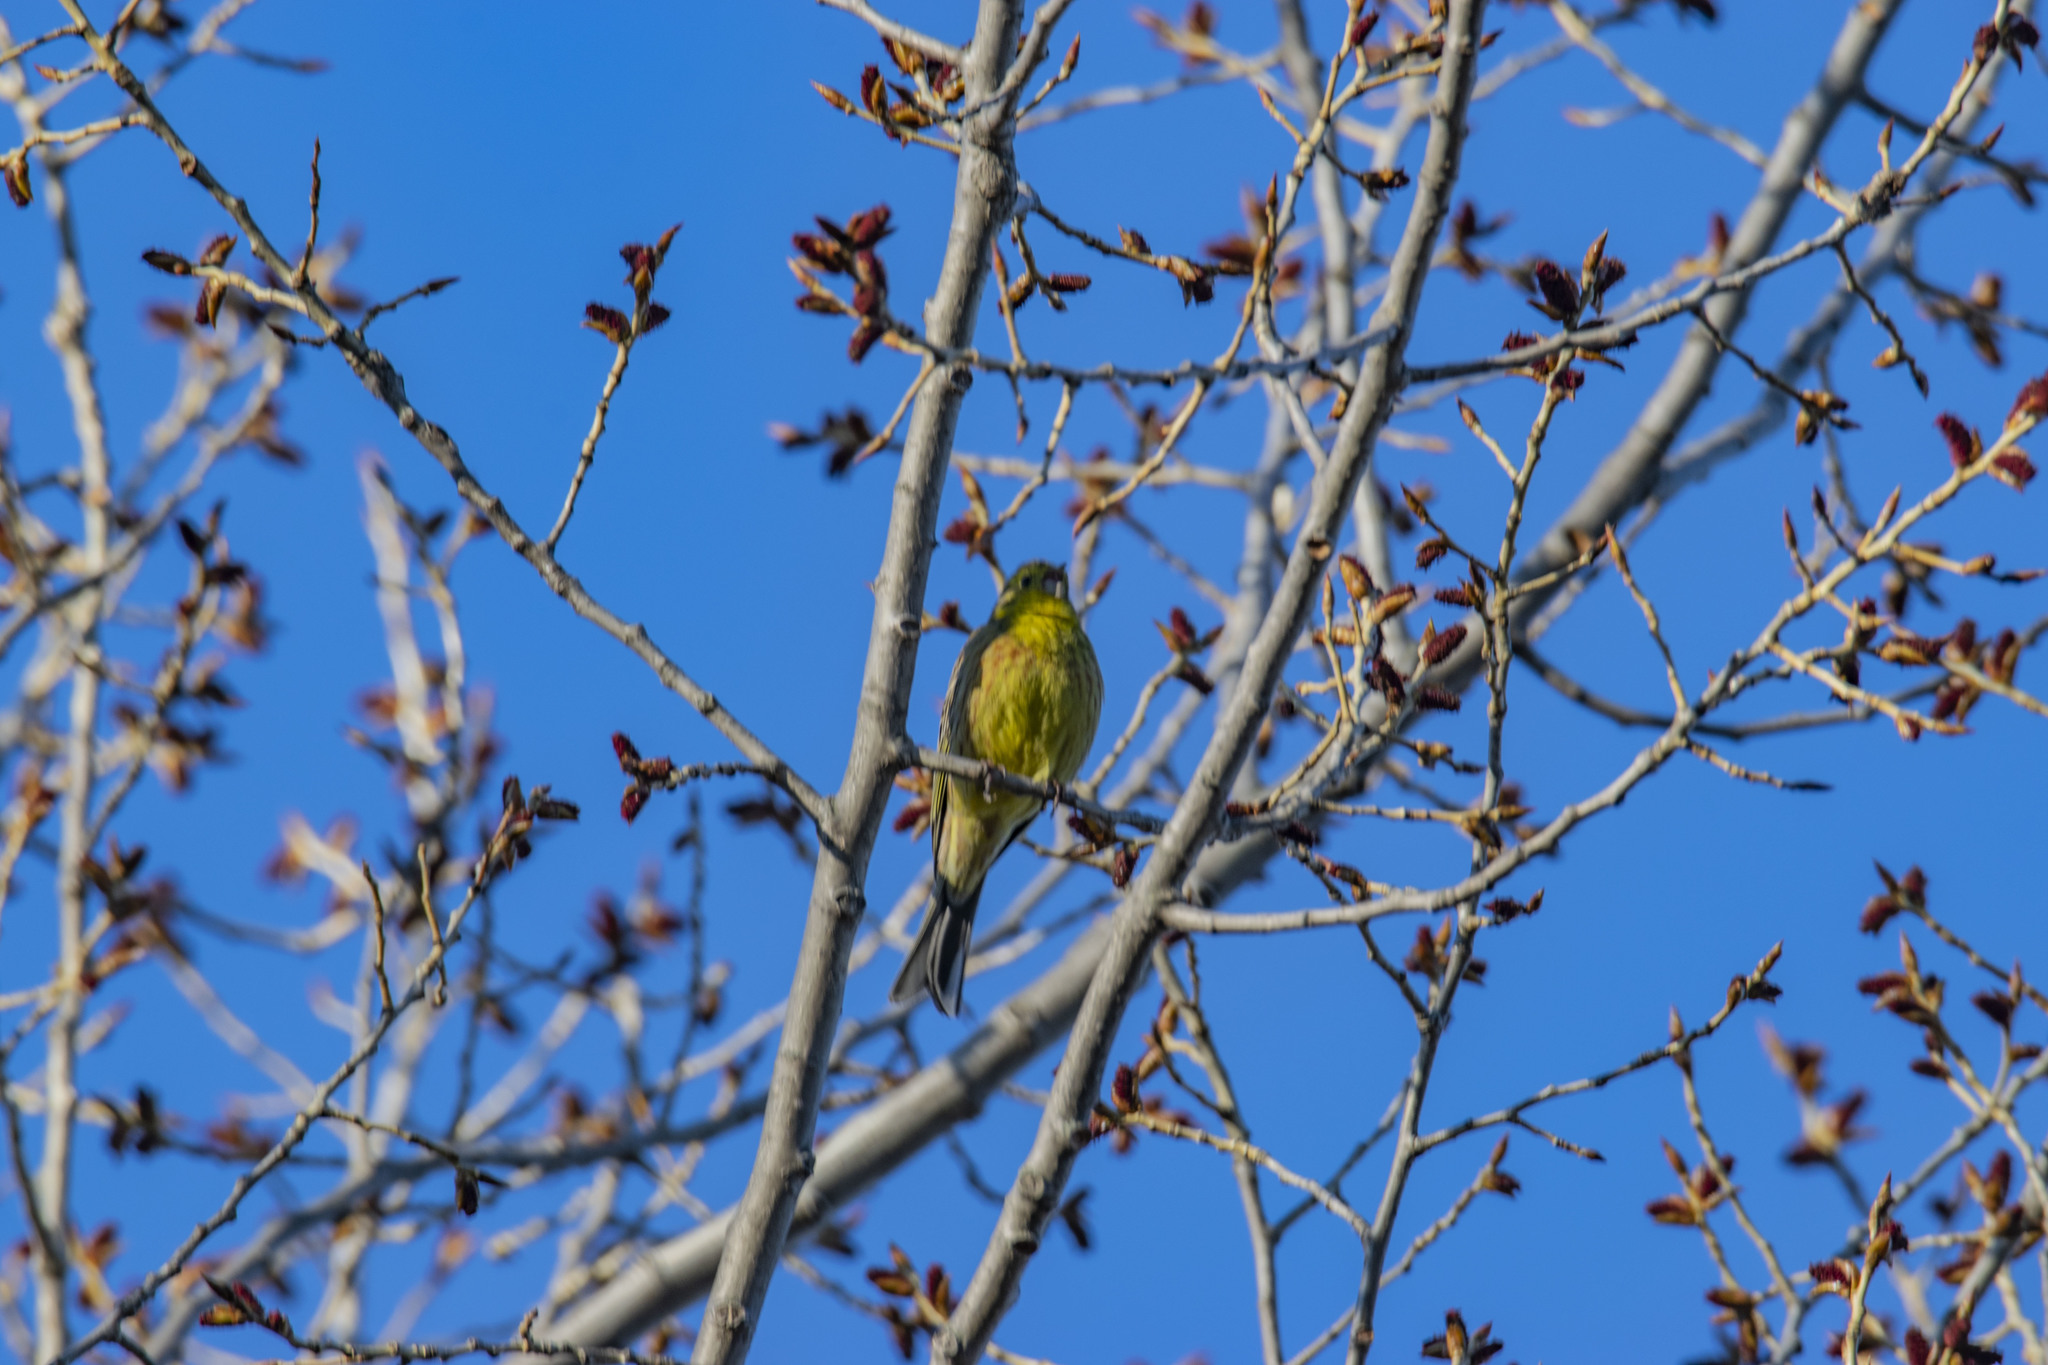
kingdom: Plantae
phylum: Tracheophyta
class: Liliopsida
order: Poales
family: Poaceae
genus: Chloris
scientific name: Chloris chloris
